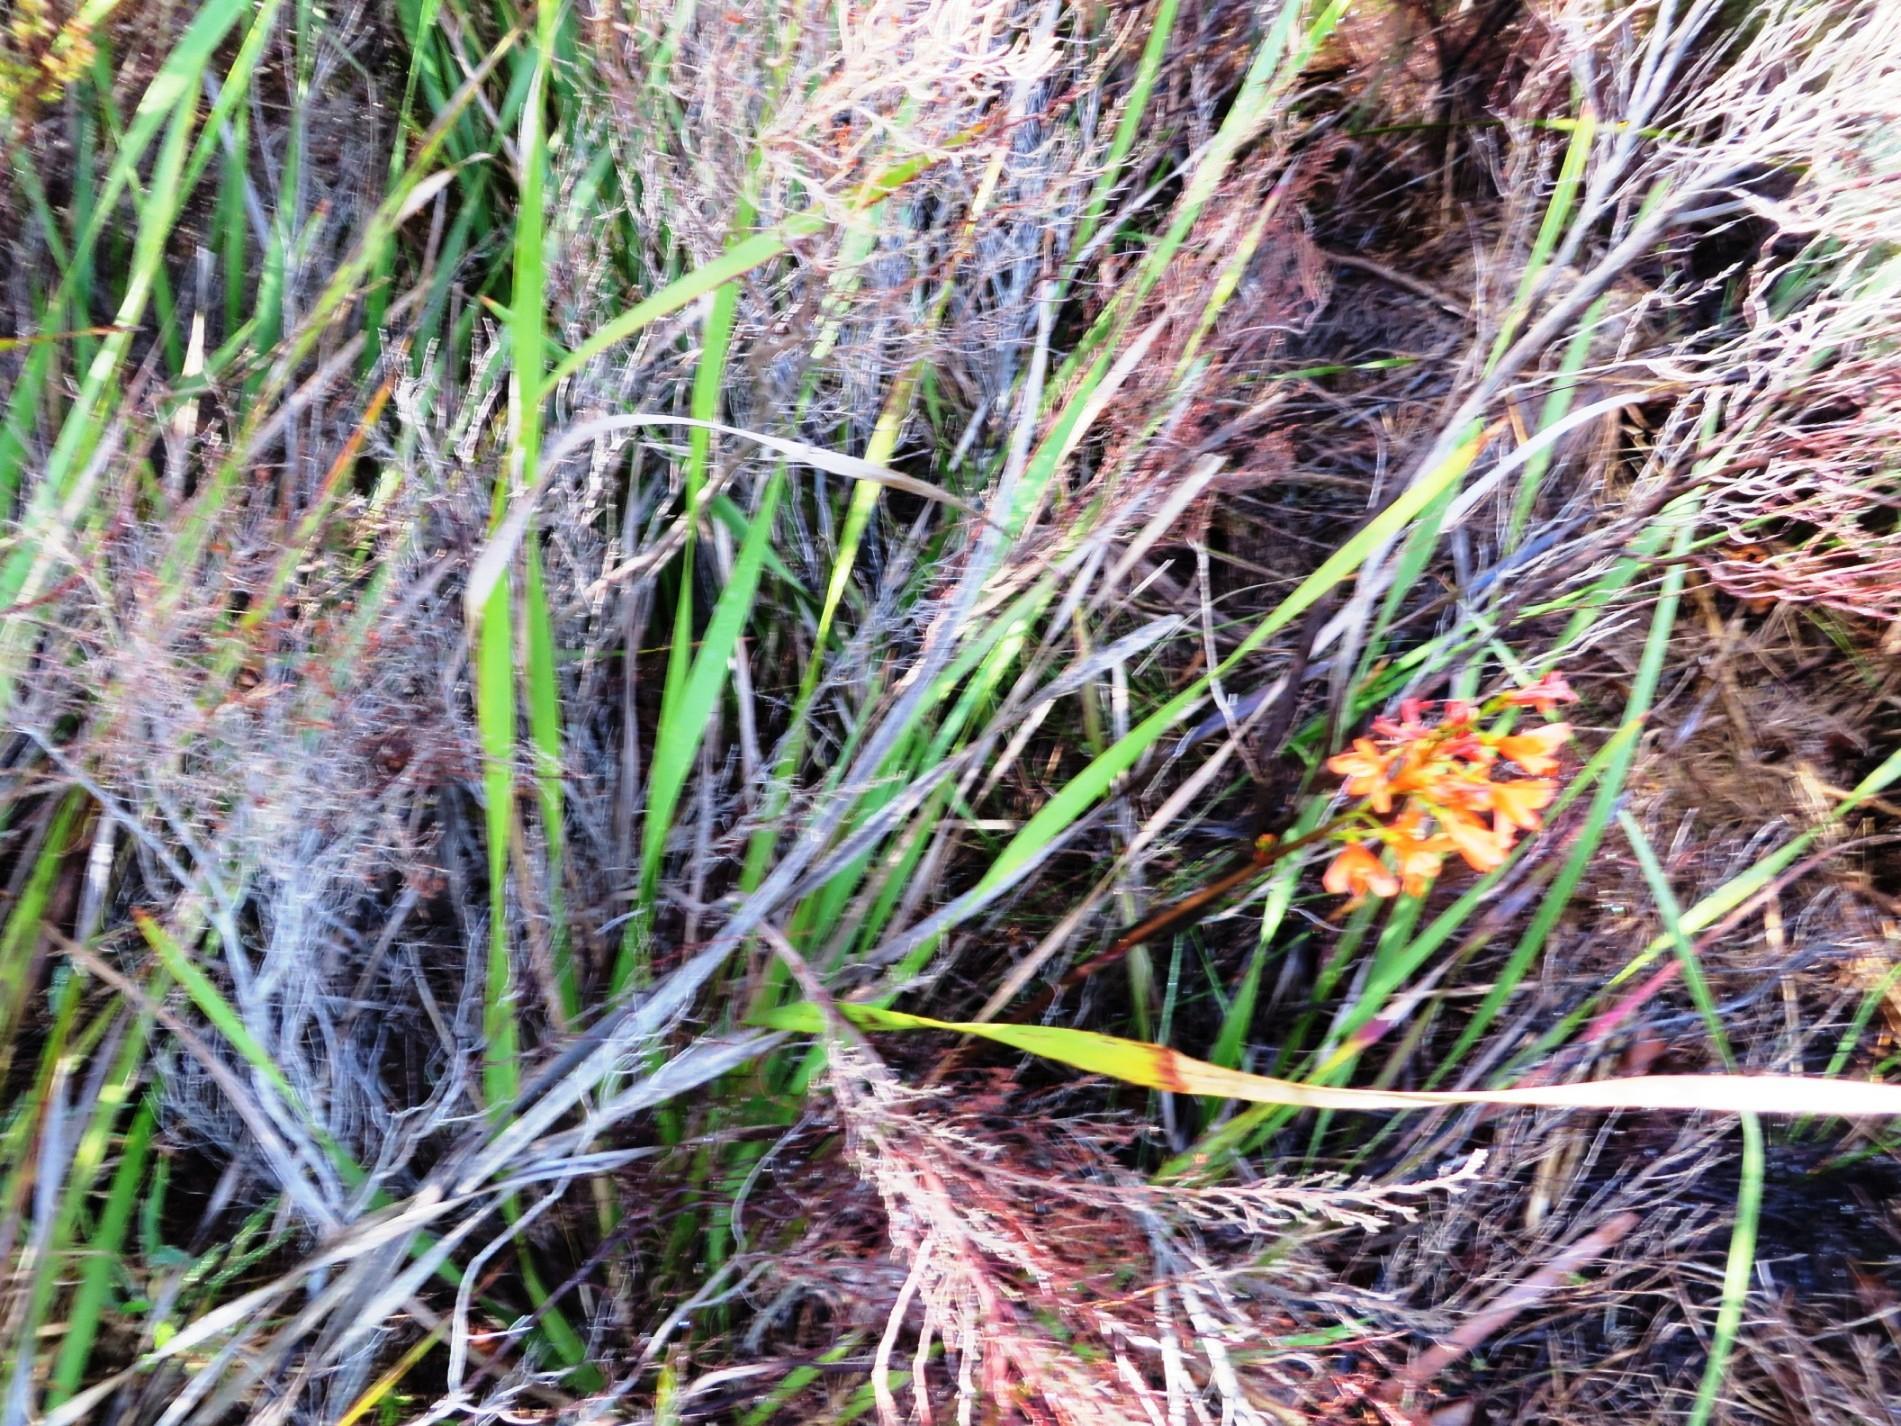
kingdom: Plantae
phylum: Tracheophyta
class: Liliopsida
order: Asparagales
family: Iridaceae
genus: Pillansia
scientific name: Pillansia templemannii
